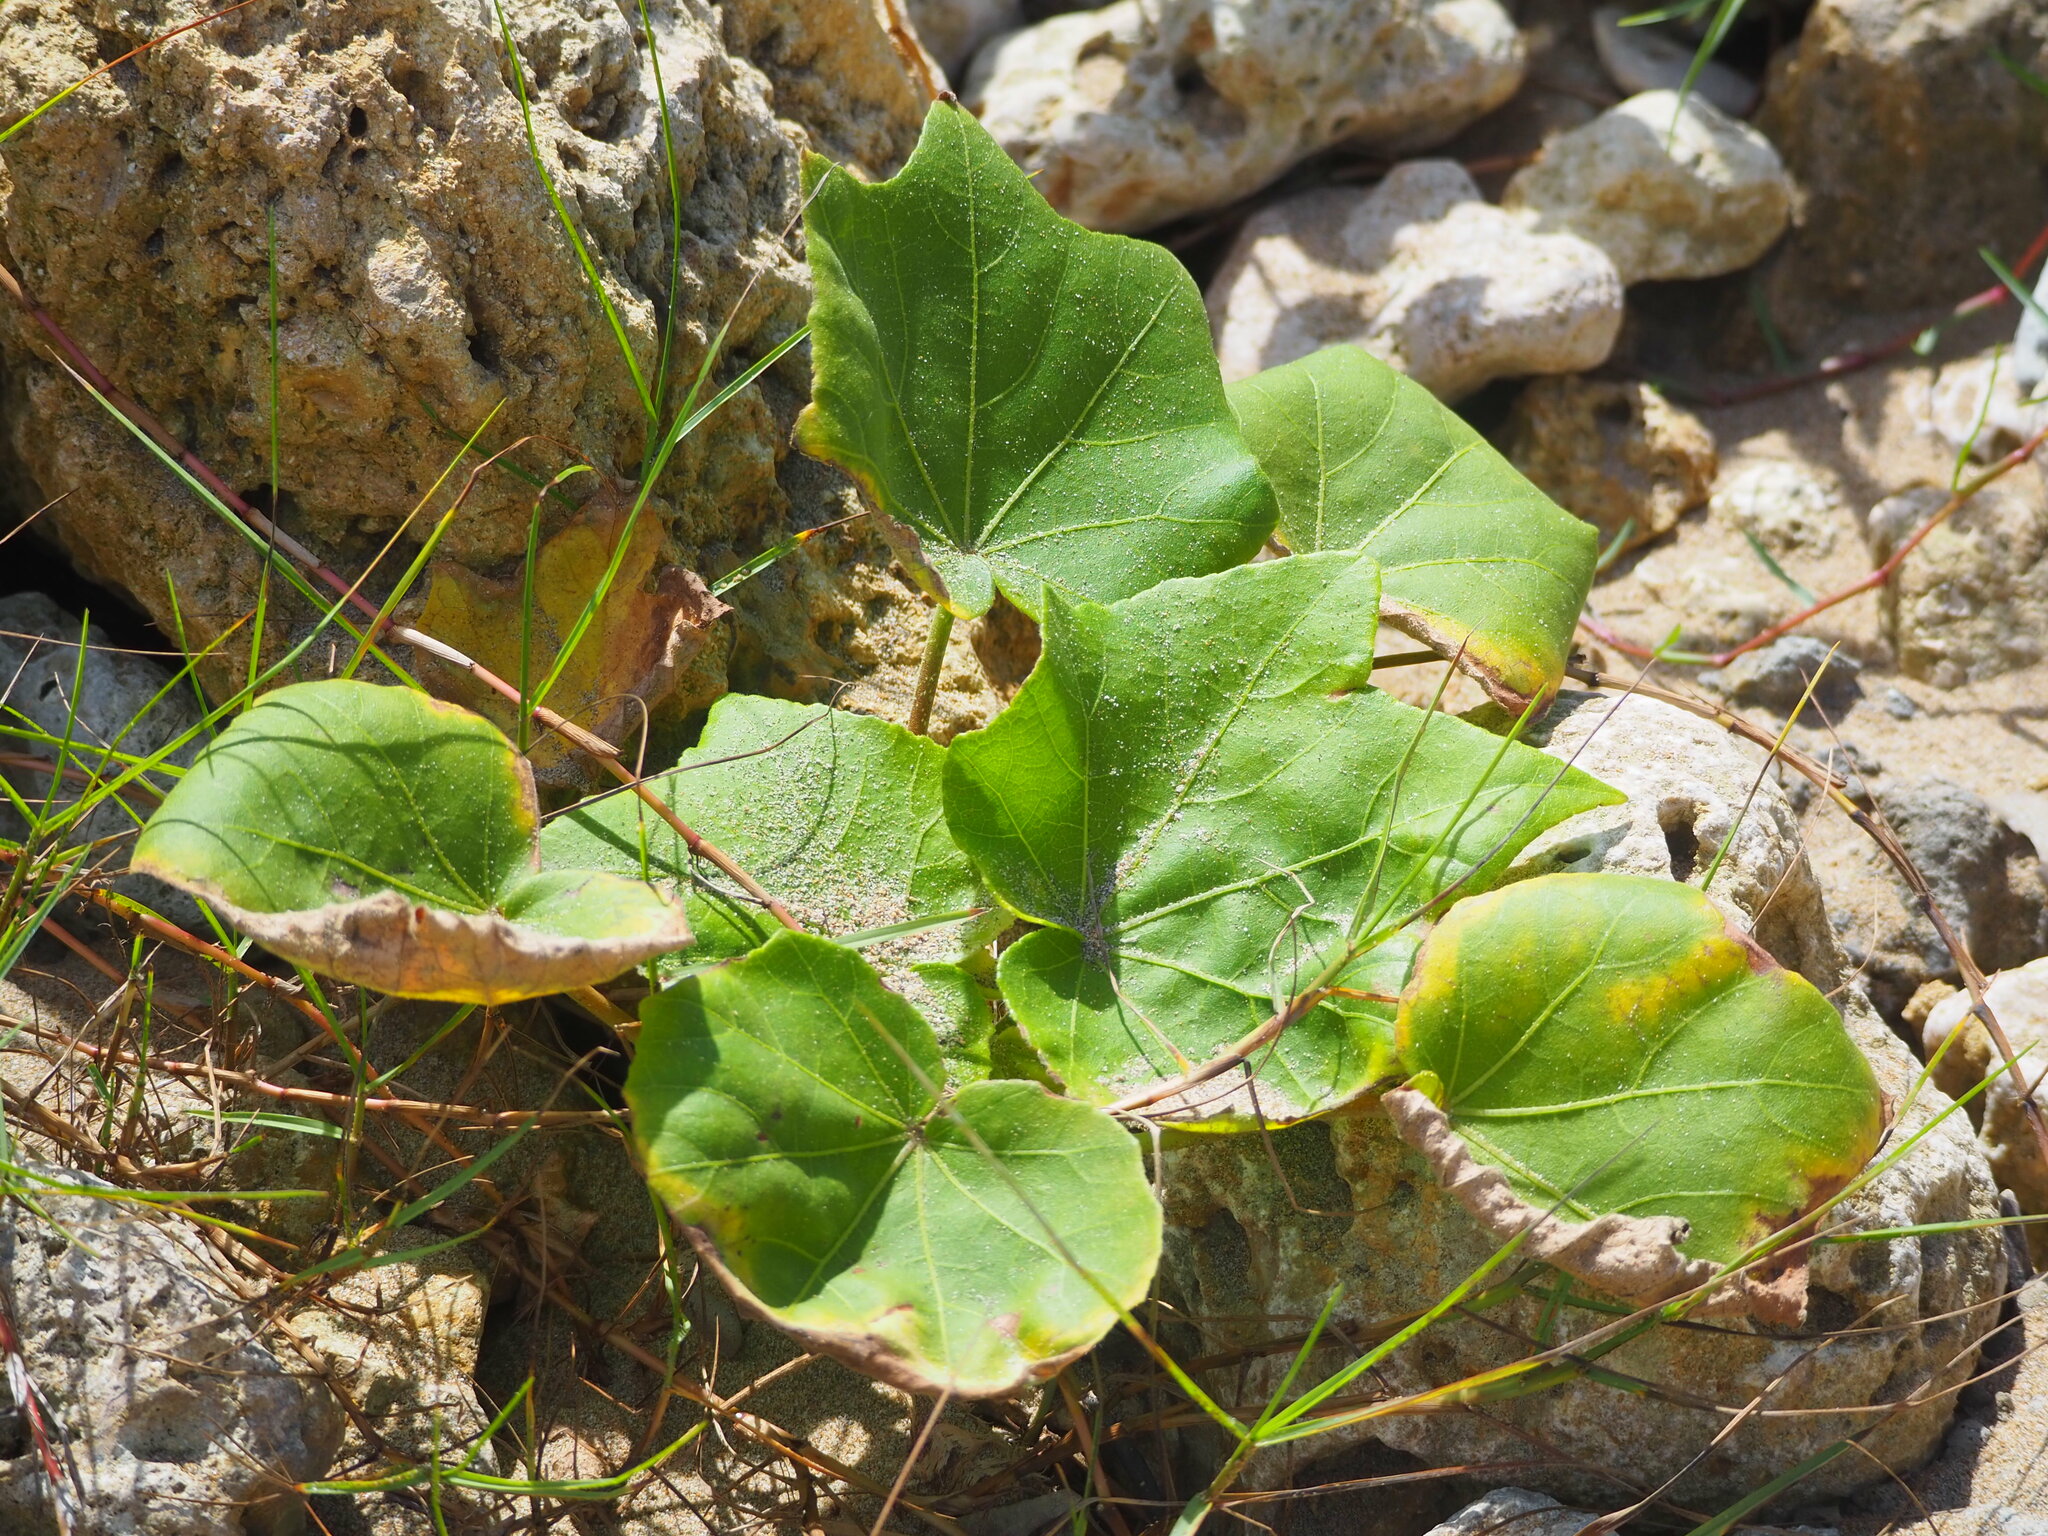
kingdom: Plantae
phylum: Tracheophyta
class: Magnoliopsida
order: Malvales
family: Malvaceae
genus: Hibiscus
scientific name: Hibiscus taiwanensis
